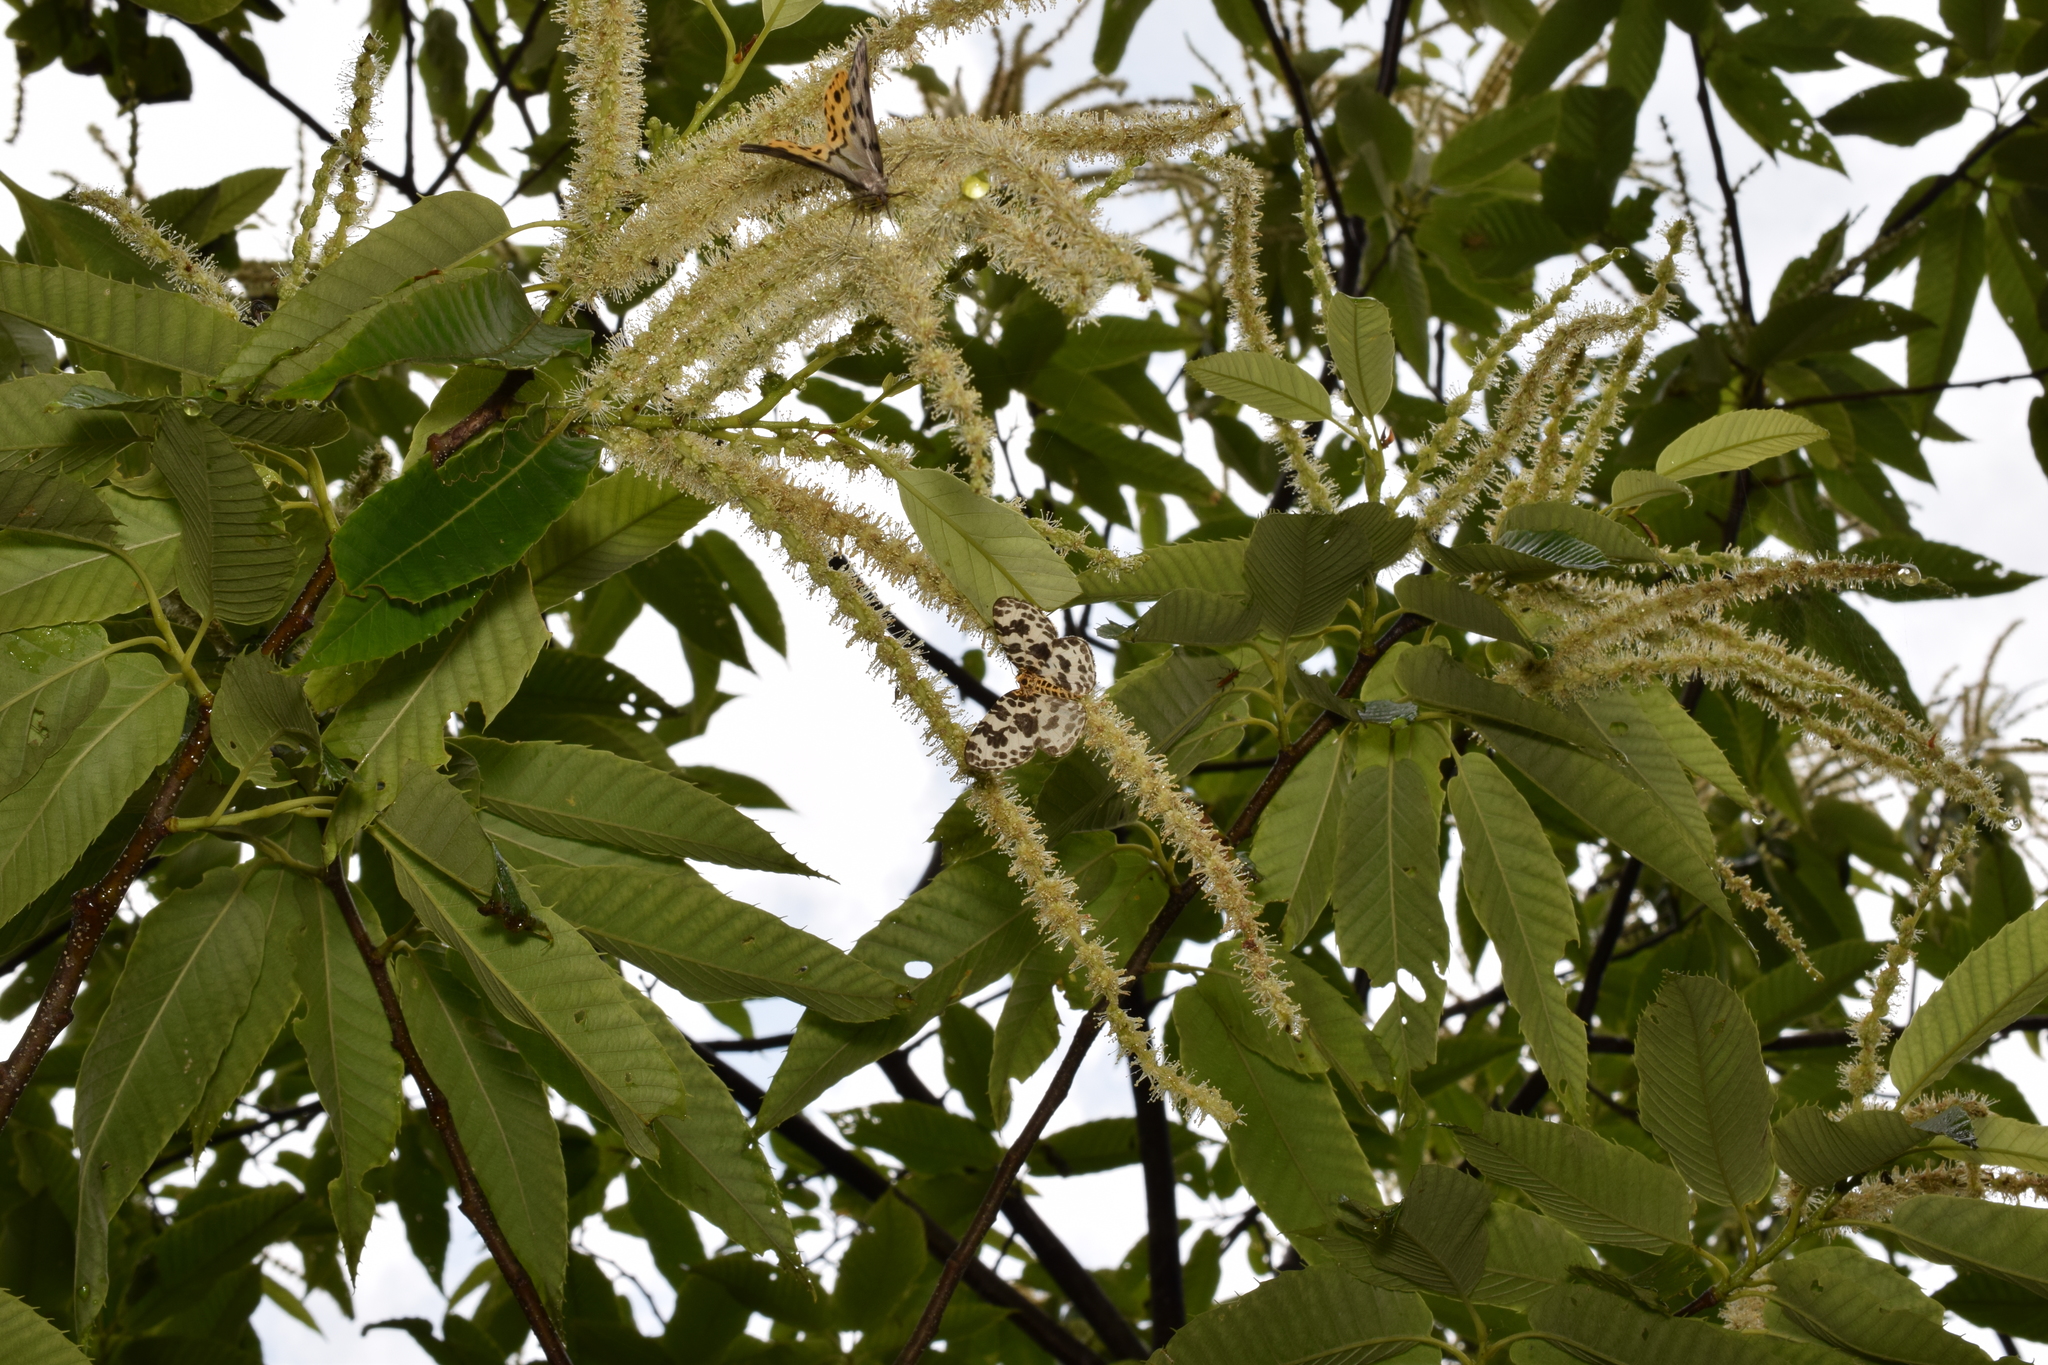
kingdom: Animalia
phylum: Arthropoda
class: Insecta
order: Lepidoptera
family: Geometridae
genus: Gandaritis
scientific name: Gandaritis
